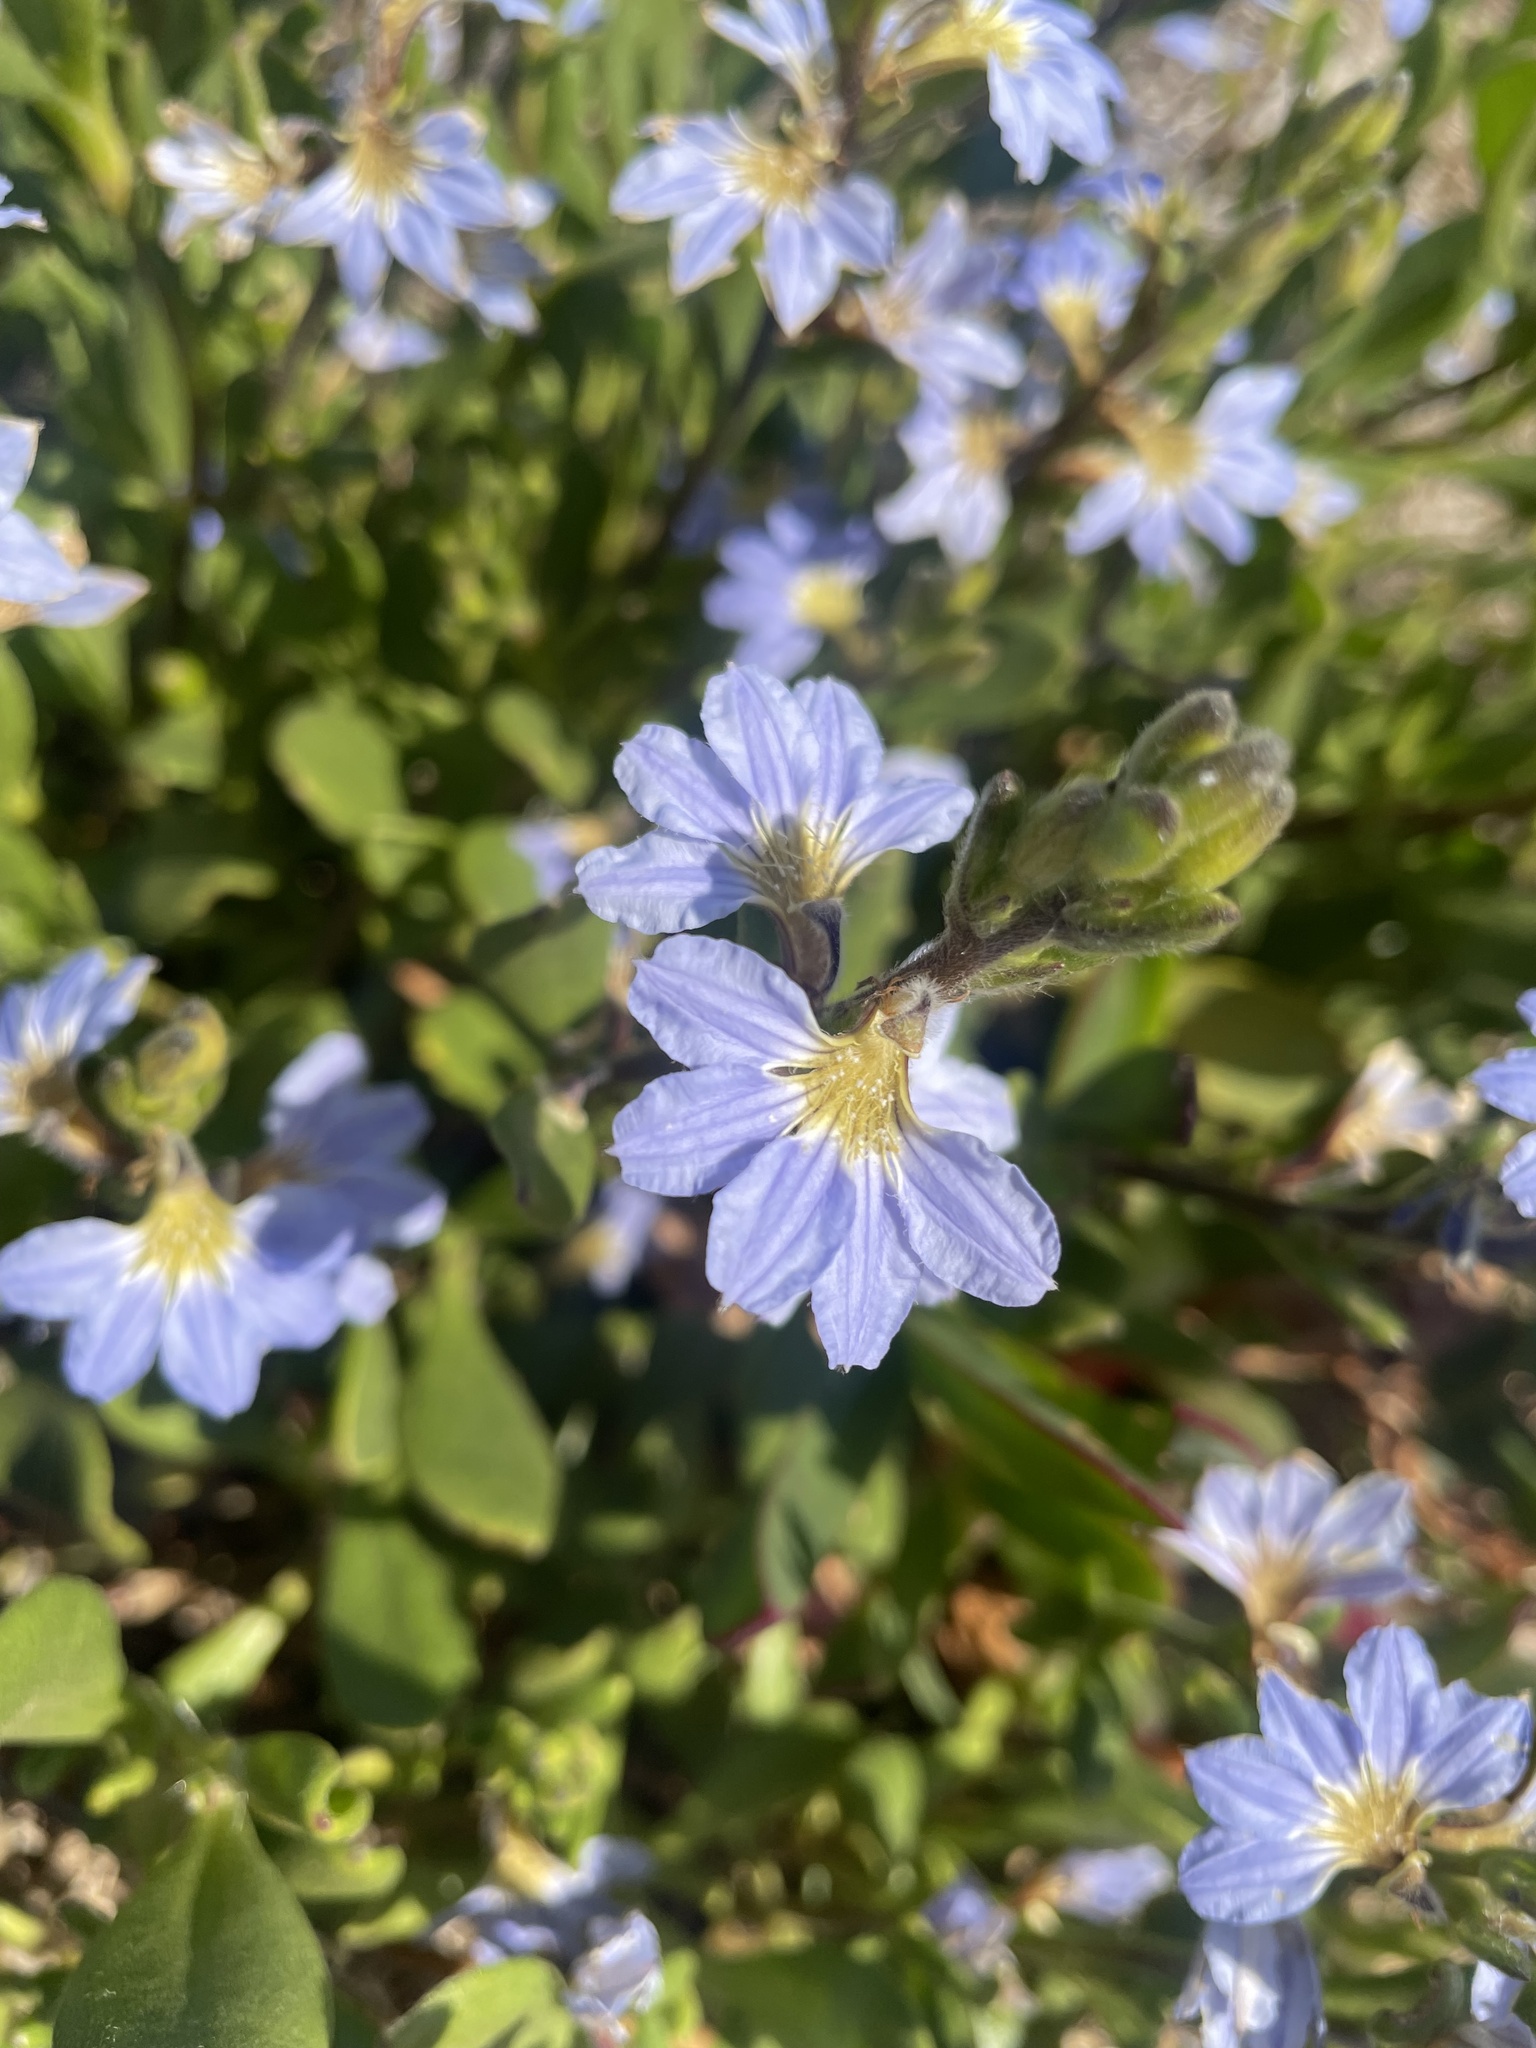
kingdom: Plantae
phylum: Tracheophyta
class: Magnoliopsida
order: Asterales
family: Goodeniaceae
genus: Scaevola
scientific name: Scaevola calendulacea
